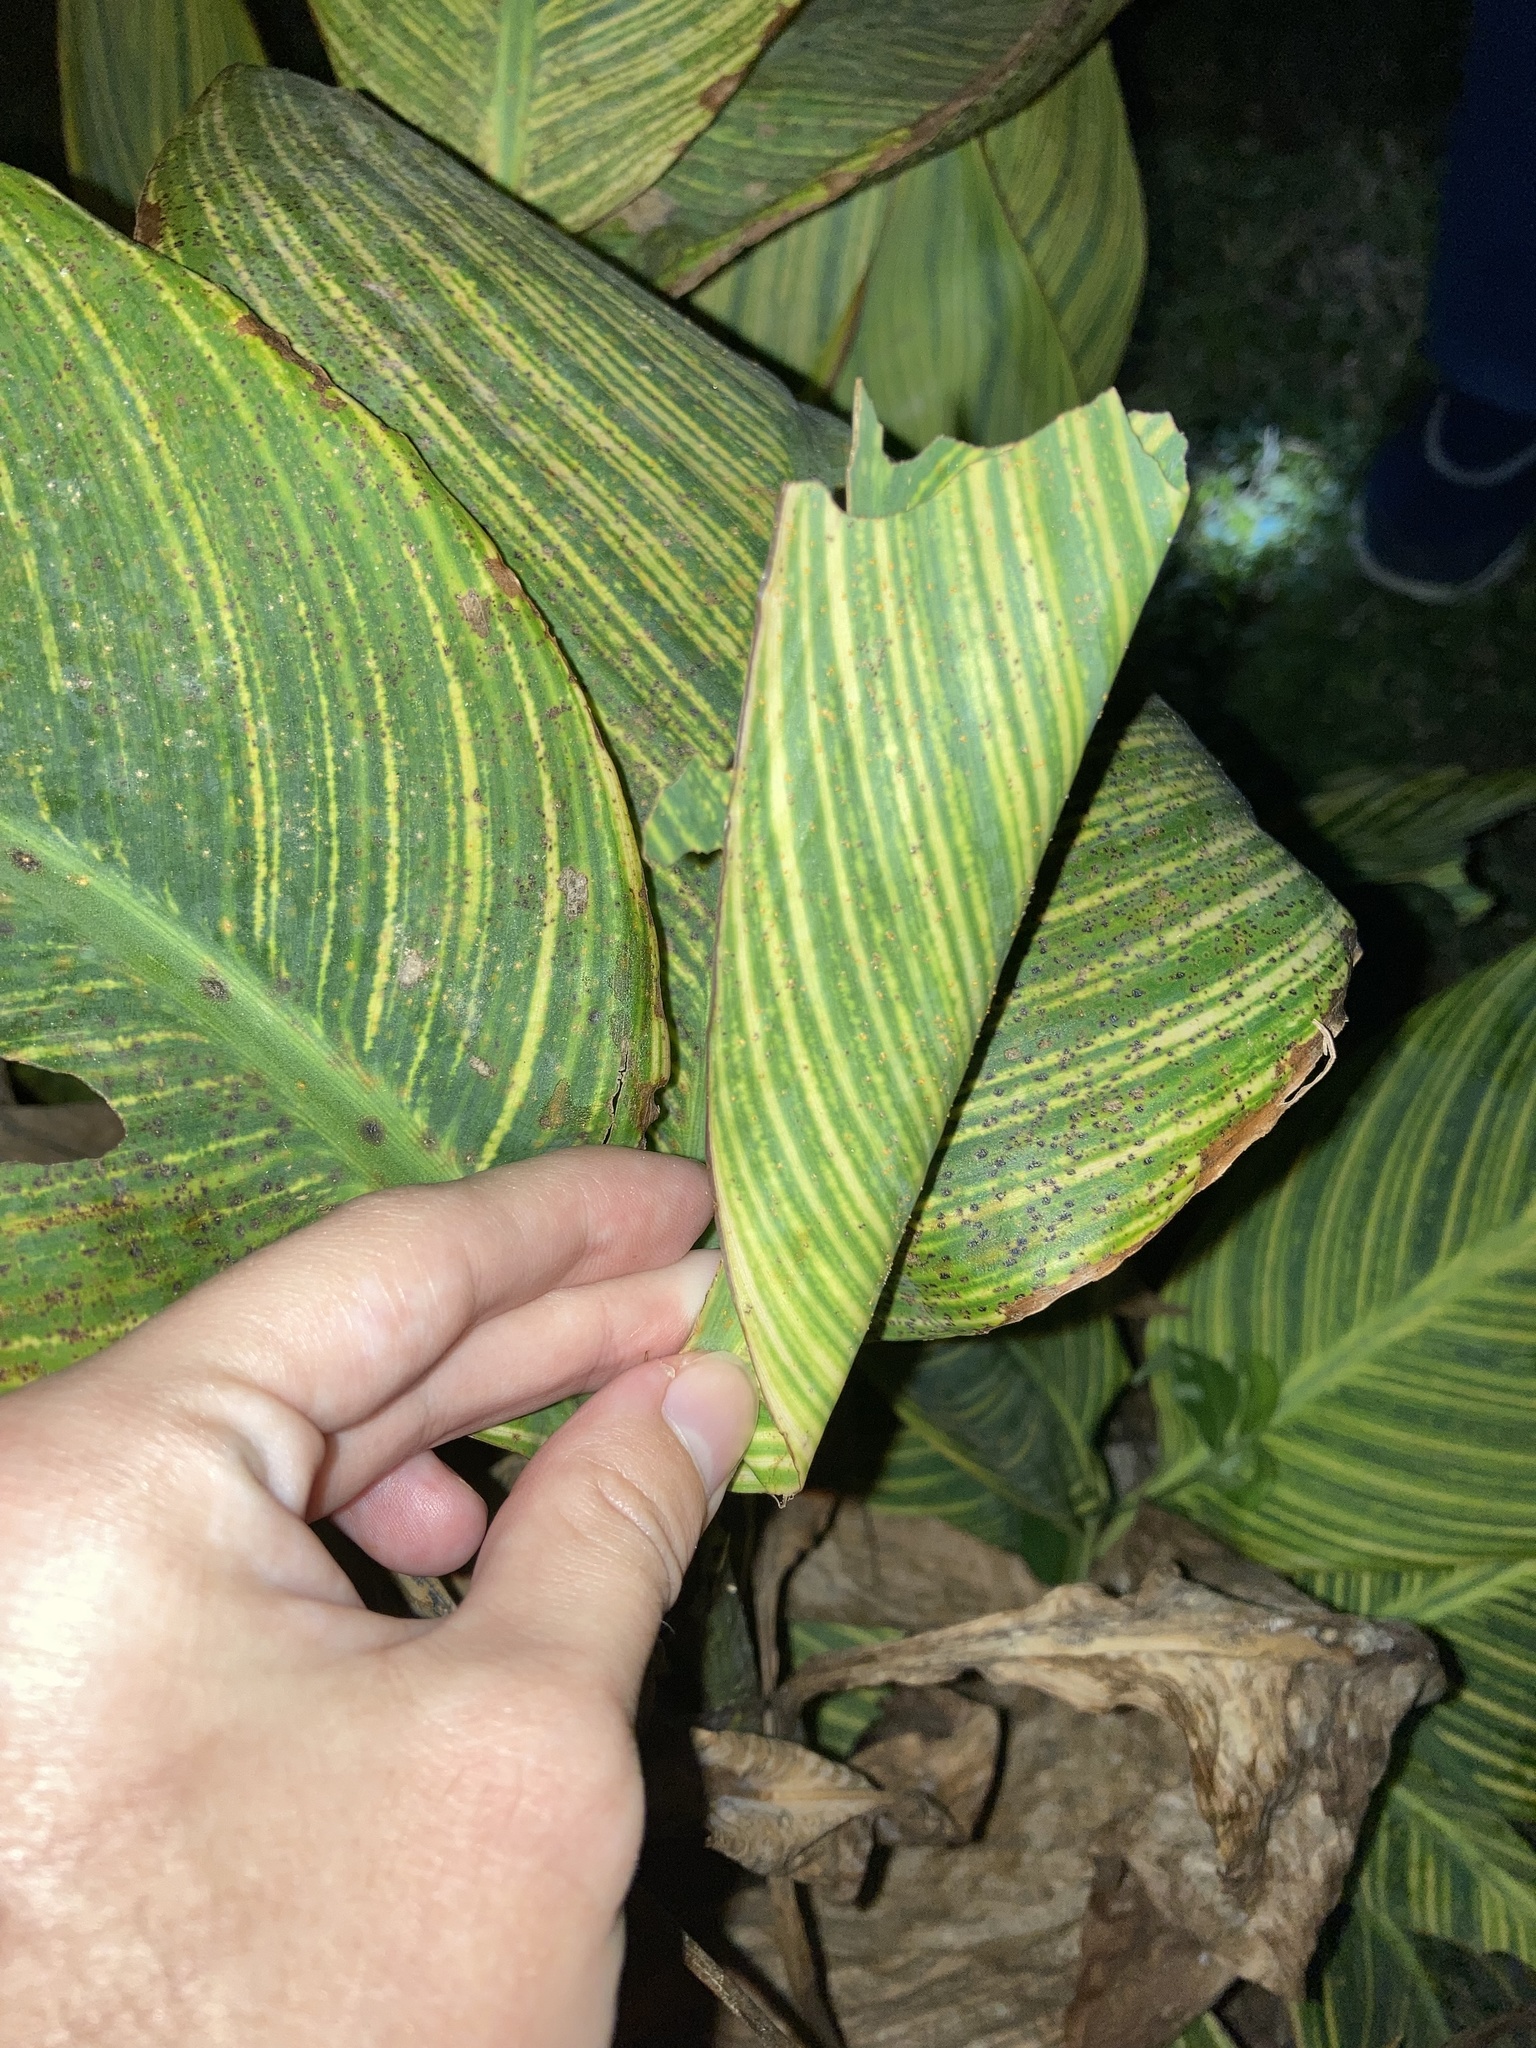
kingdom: Animalia
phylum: Arthropoda
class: Insecta
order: Lepidoptera
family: Hesperiidae
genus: Calpodes
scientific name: Calpodes ethlius
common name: Brazilian skipper
